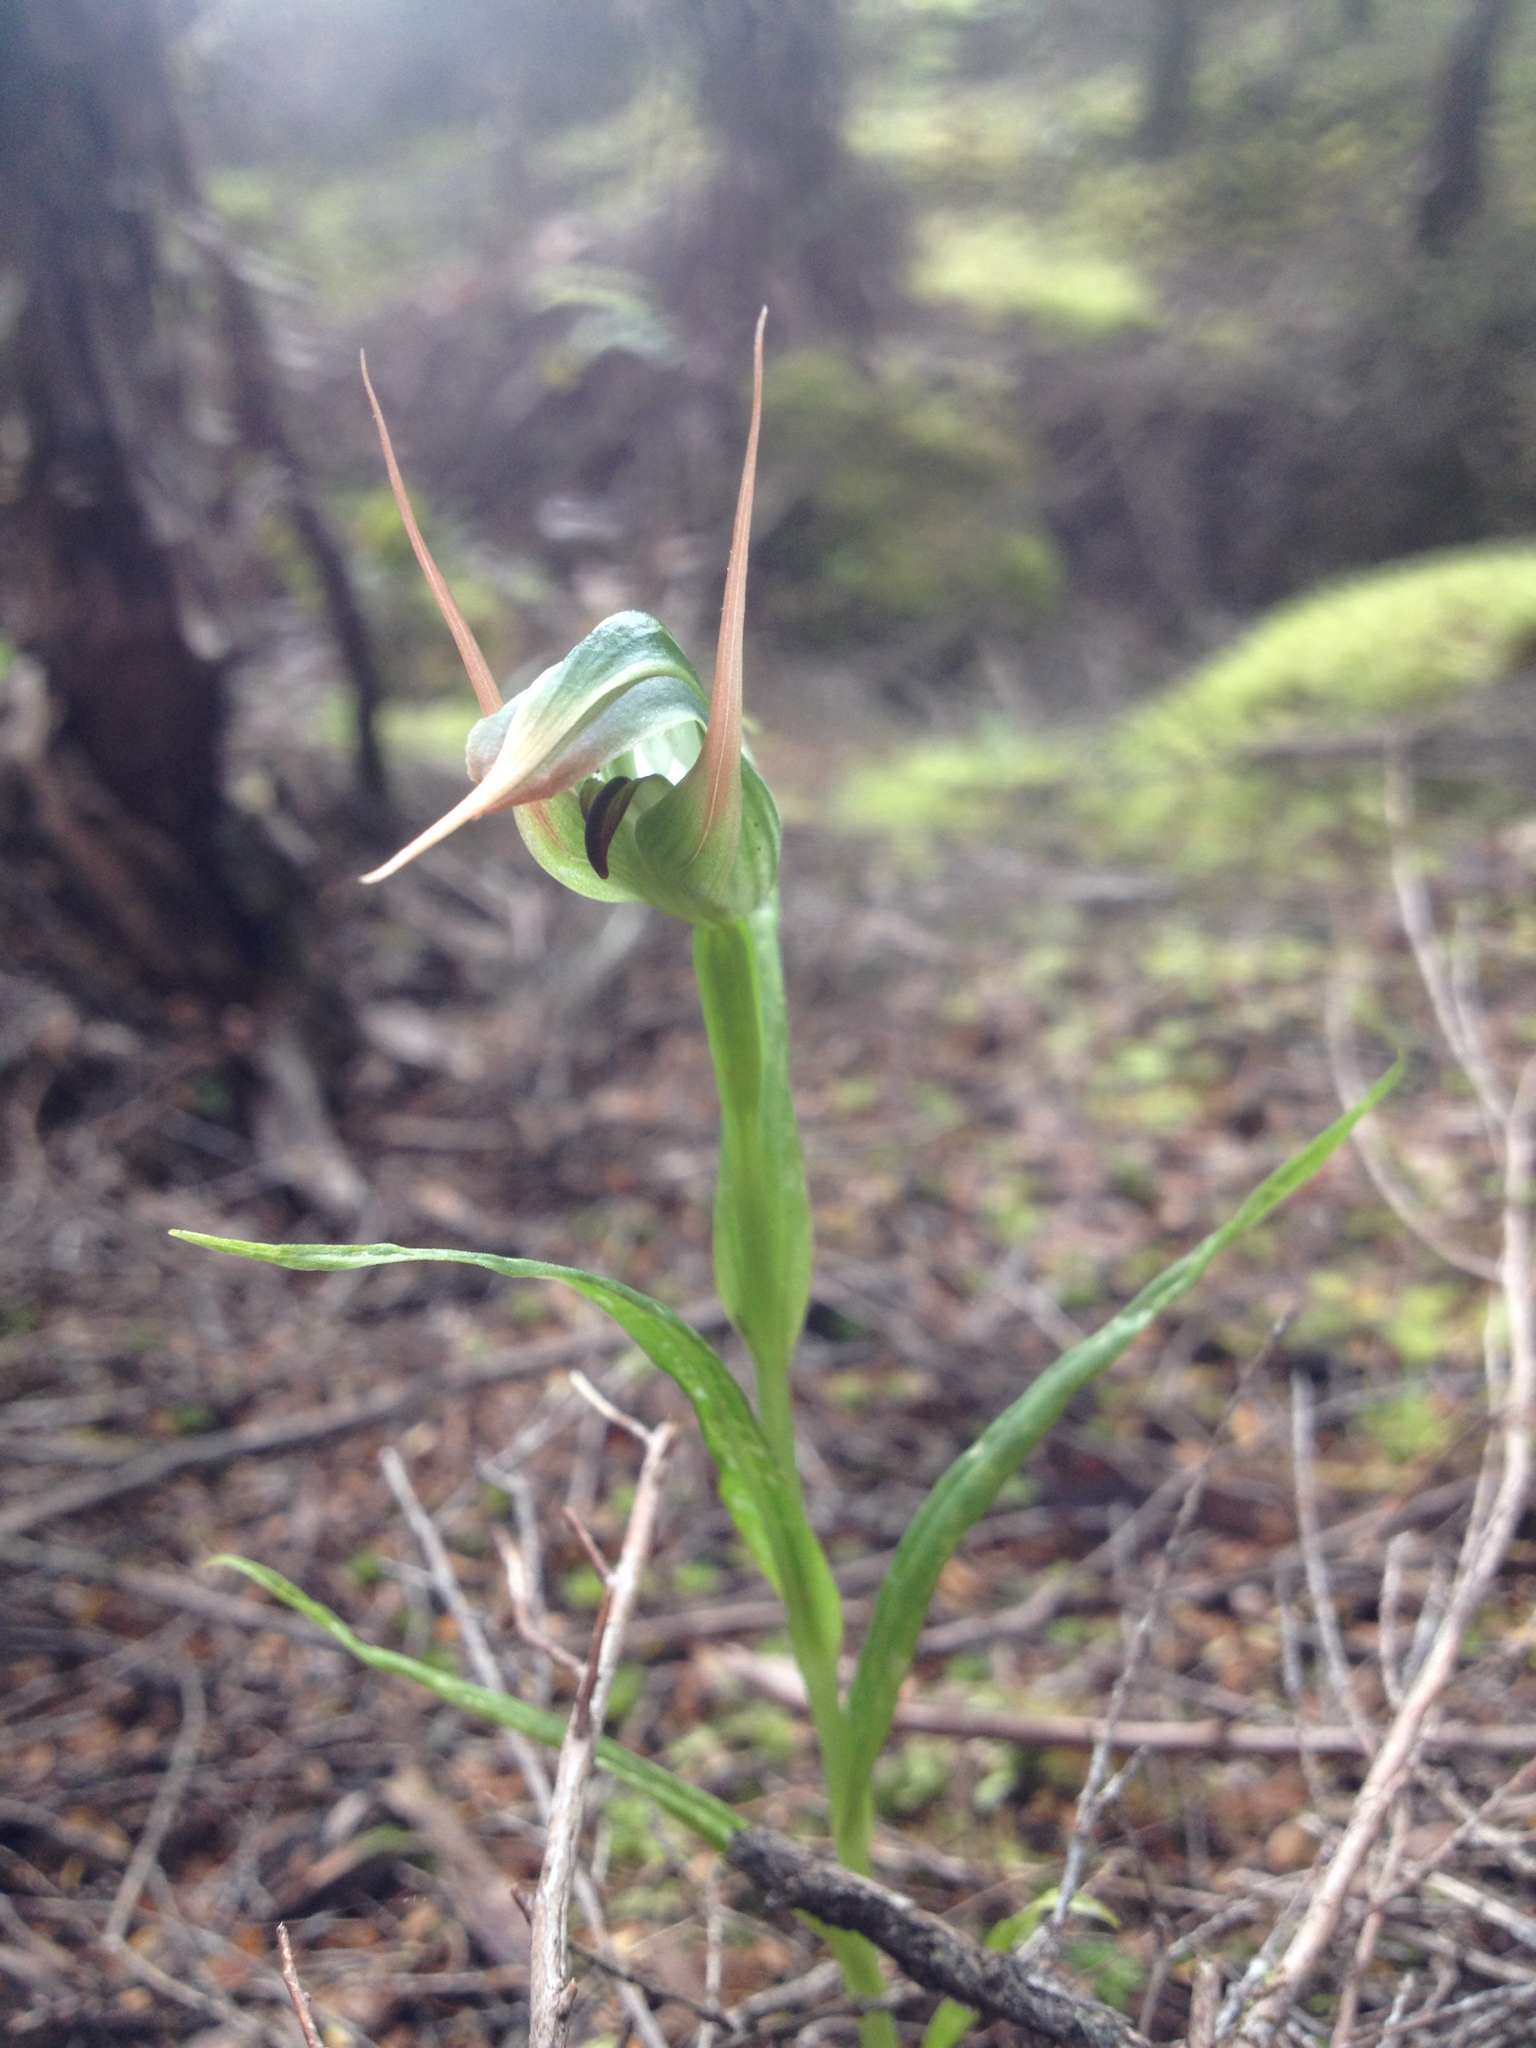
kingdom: Plantae
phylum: Tracheophyta
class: Liliopsida
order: Asparagales
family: Orchidaceae
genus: Pterostylis
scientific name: Pterostylis banksii
